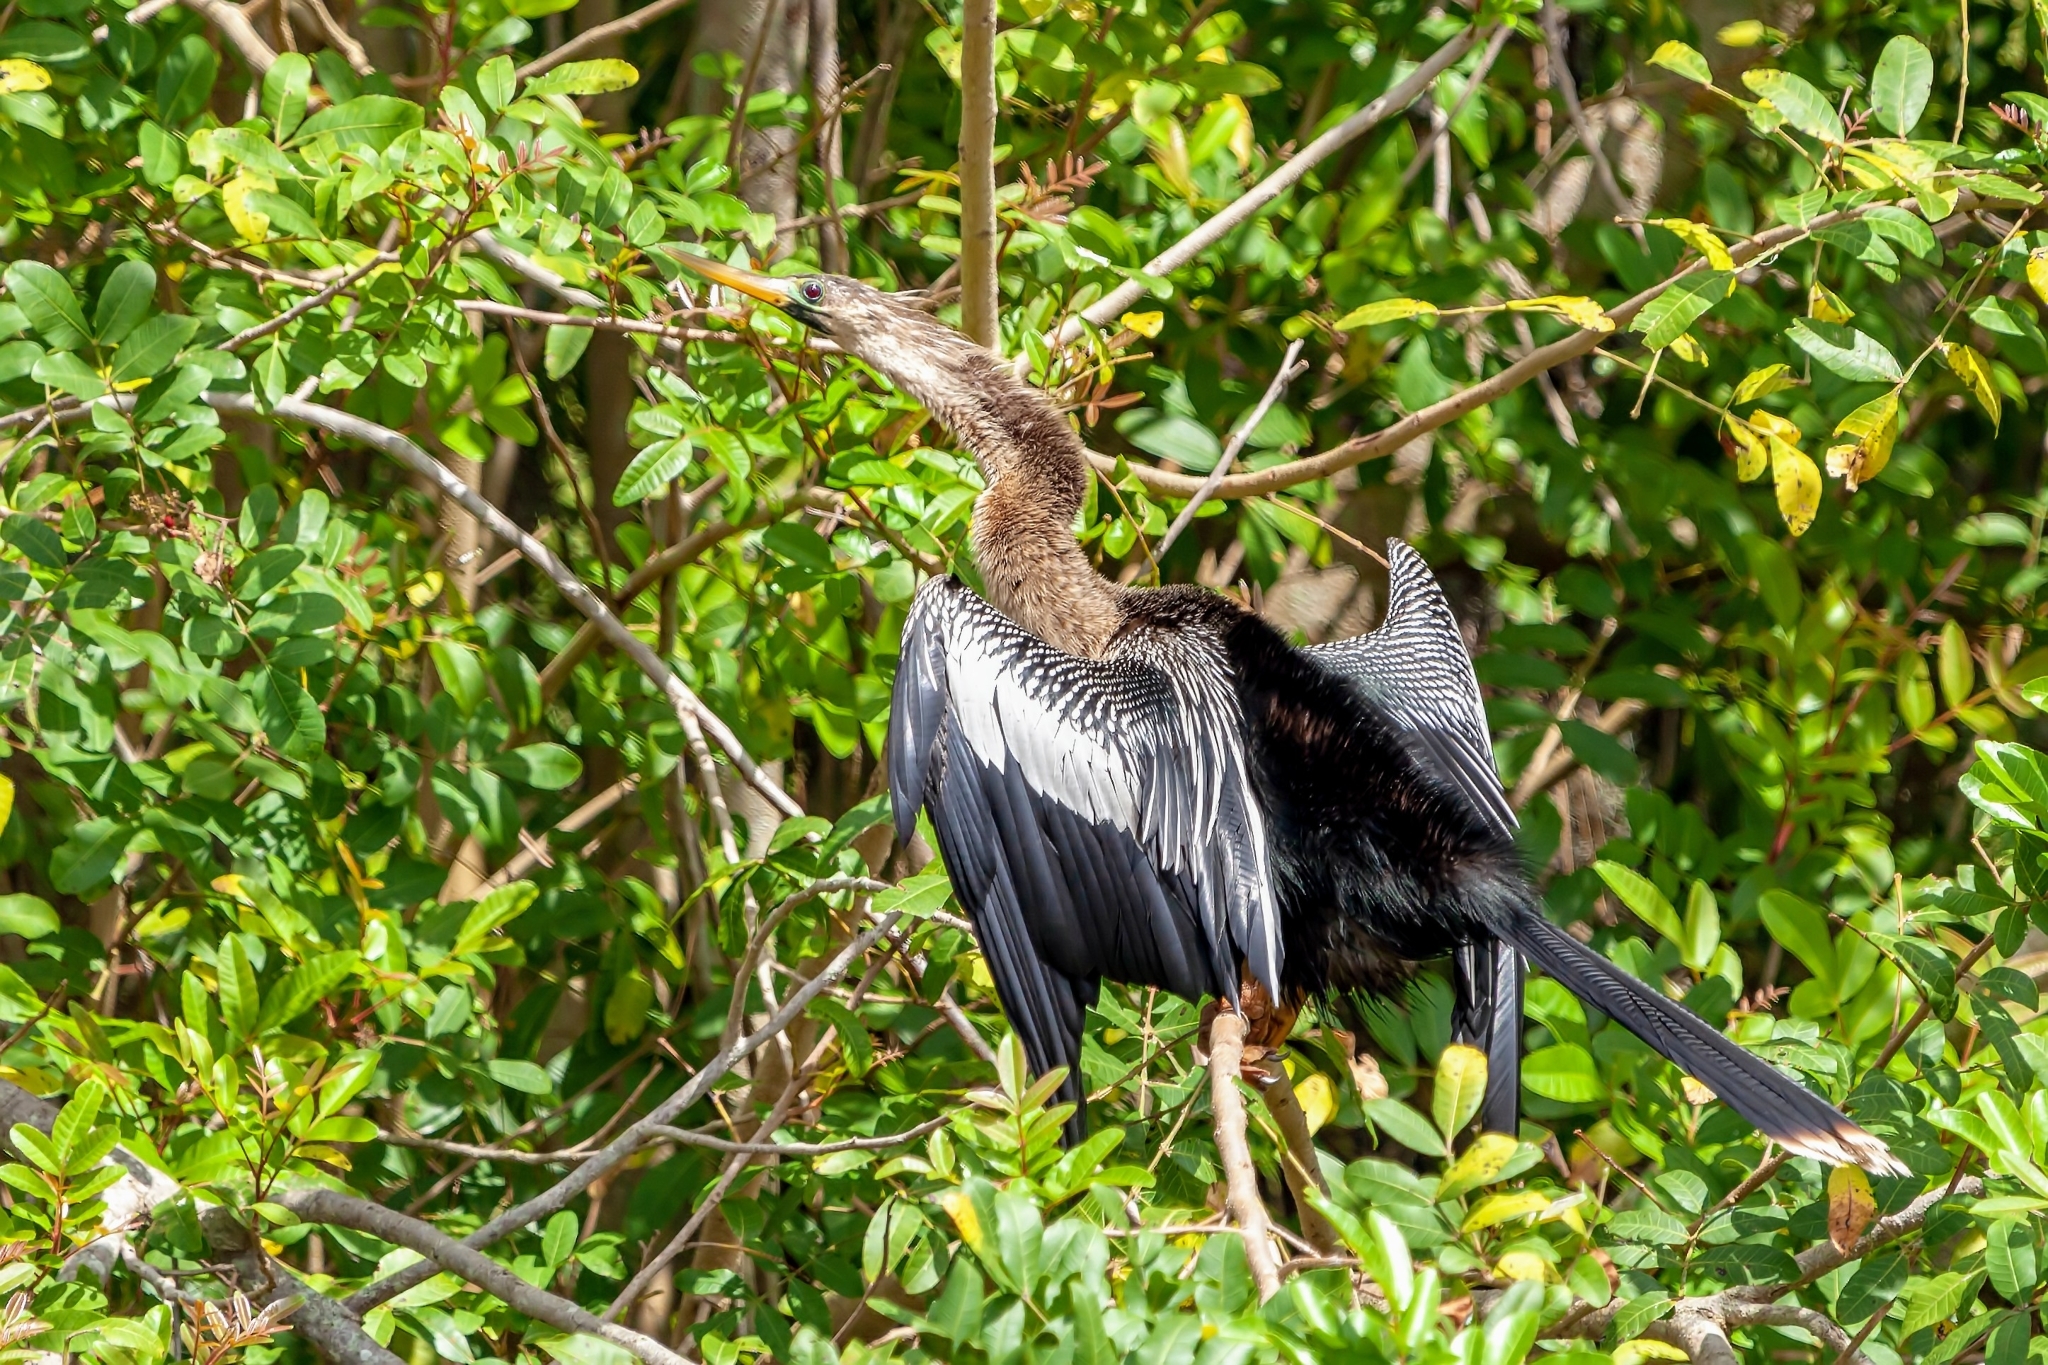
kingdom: Animalia
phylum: Chordata
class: Aves
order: Suliformes
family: Anhingidae
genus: Anhinga
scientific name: Anhinga anhinga
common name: Anhinga
